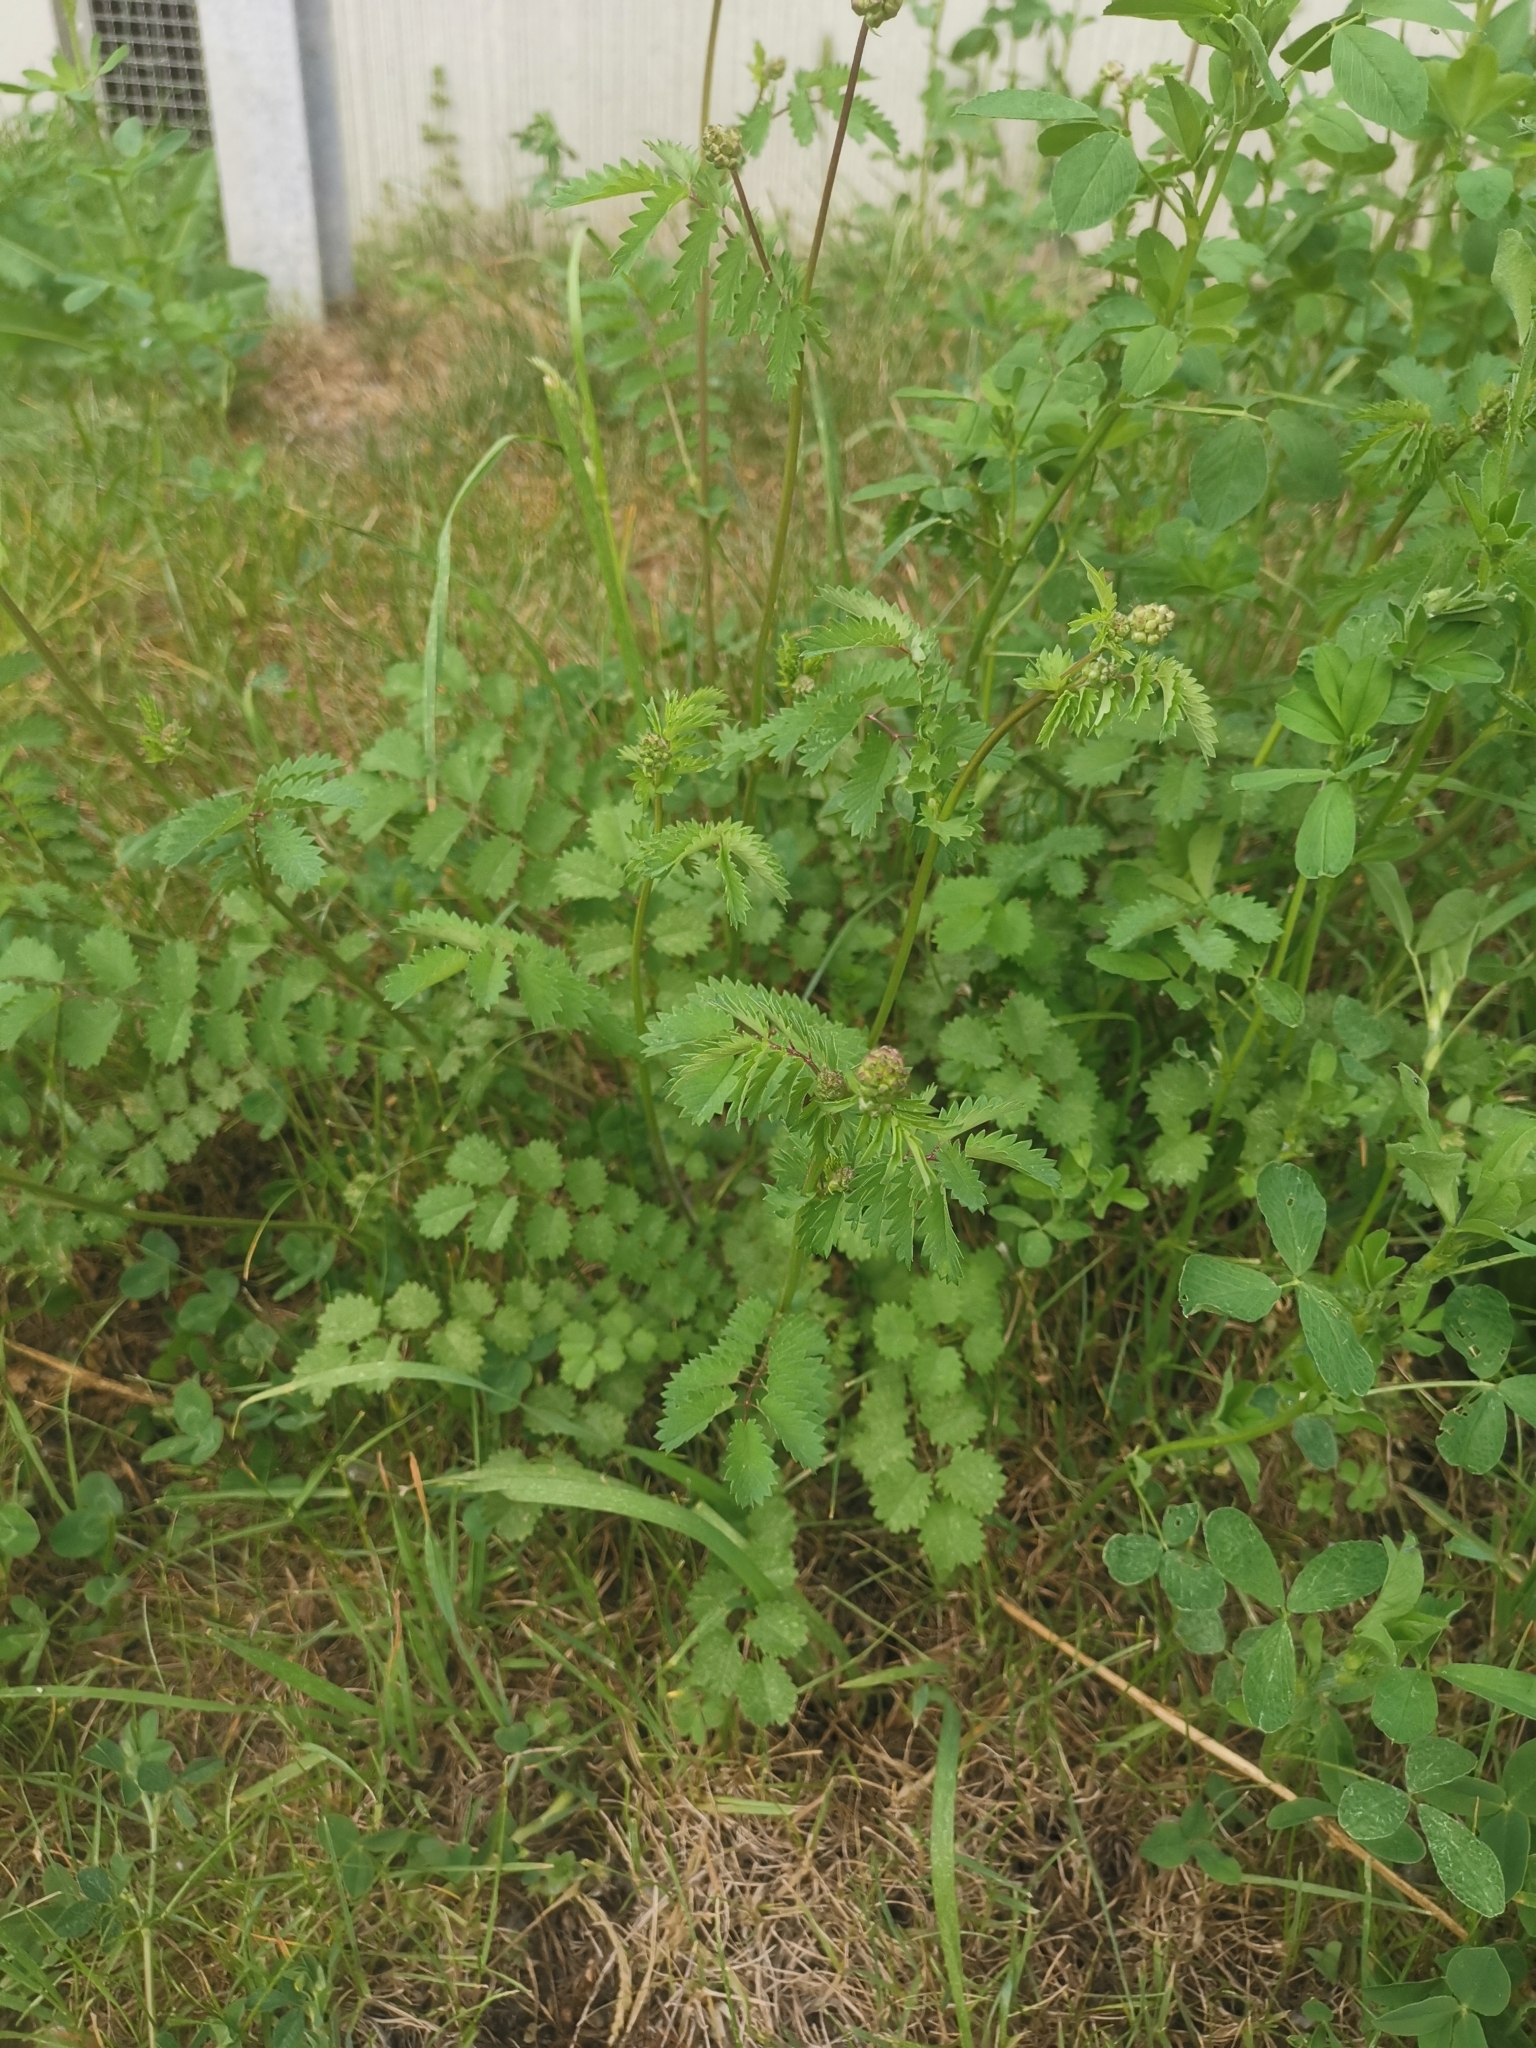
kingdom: Plantae
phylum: Tracheophyta
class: Magnoliopsida
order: Rosales
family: Rosaceae
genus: Poterium
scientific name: Poterium sanguisorba
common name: Salad burnet
